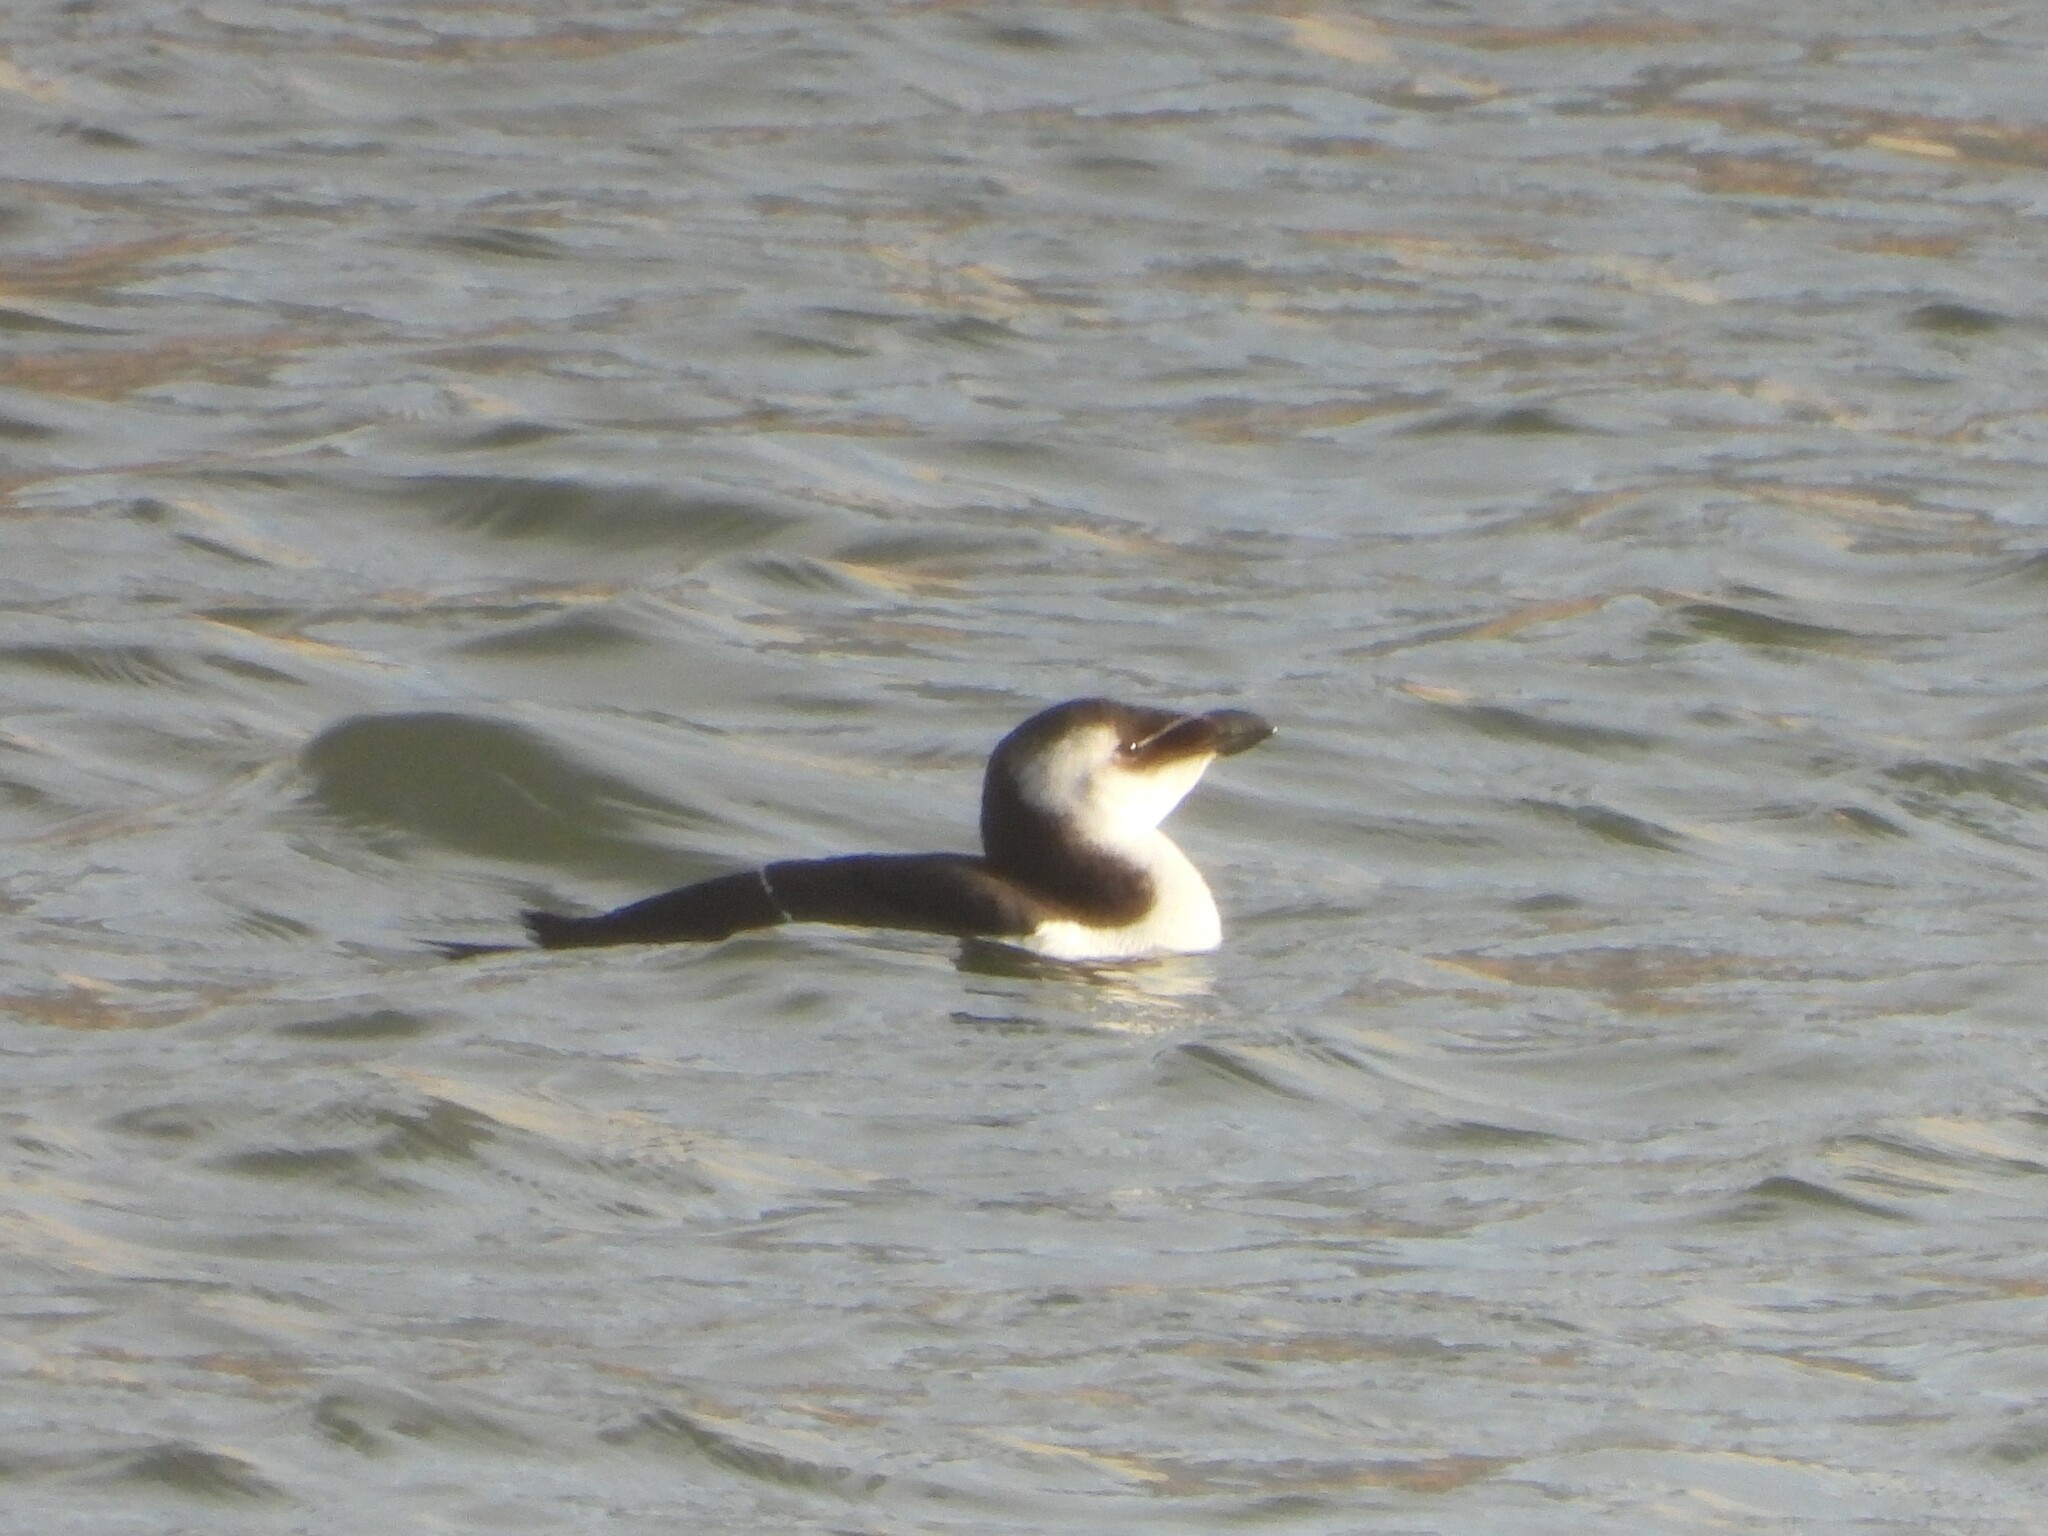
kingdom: Animalia
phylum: Chordata
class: Aves
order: Charadriiformes
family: Alcidae
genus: Alca
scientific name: Alca torda
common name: Razorbill
